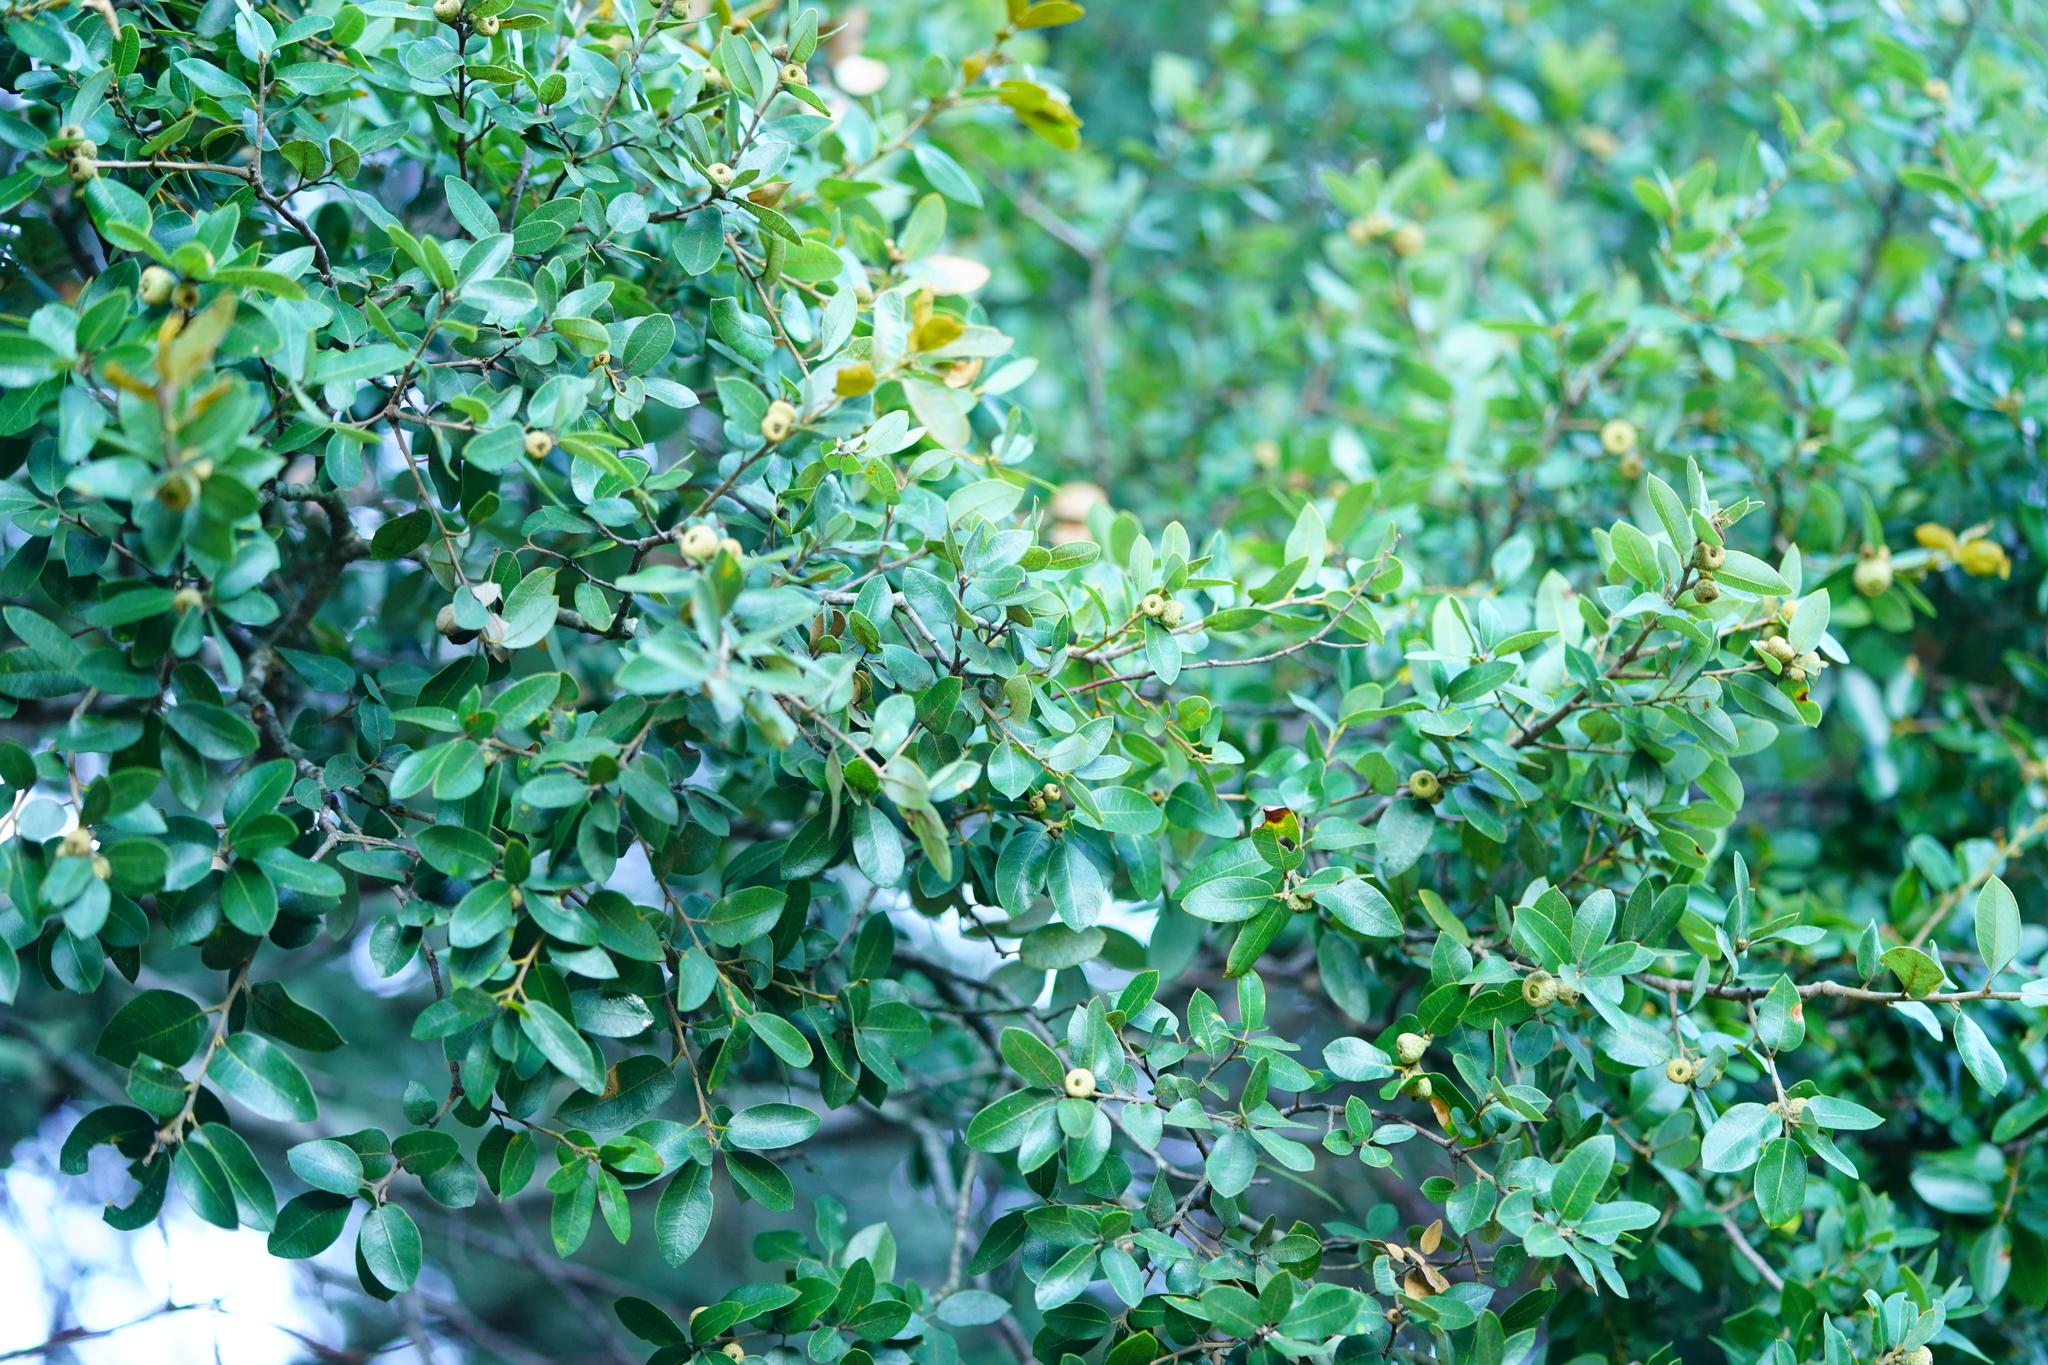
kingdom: Plantae
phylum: Tracheophyta
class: Magnoliopsida
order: Fagales
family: Fagaceae
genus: Quercus
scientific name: Quercus chrysolepis
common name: Canyon live oak
